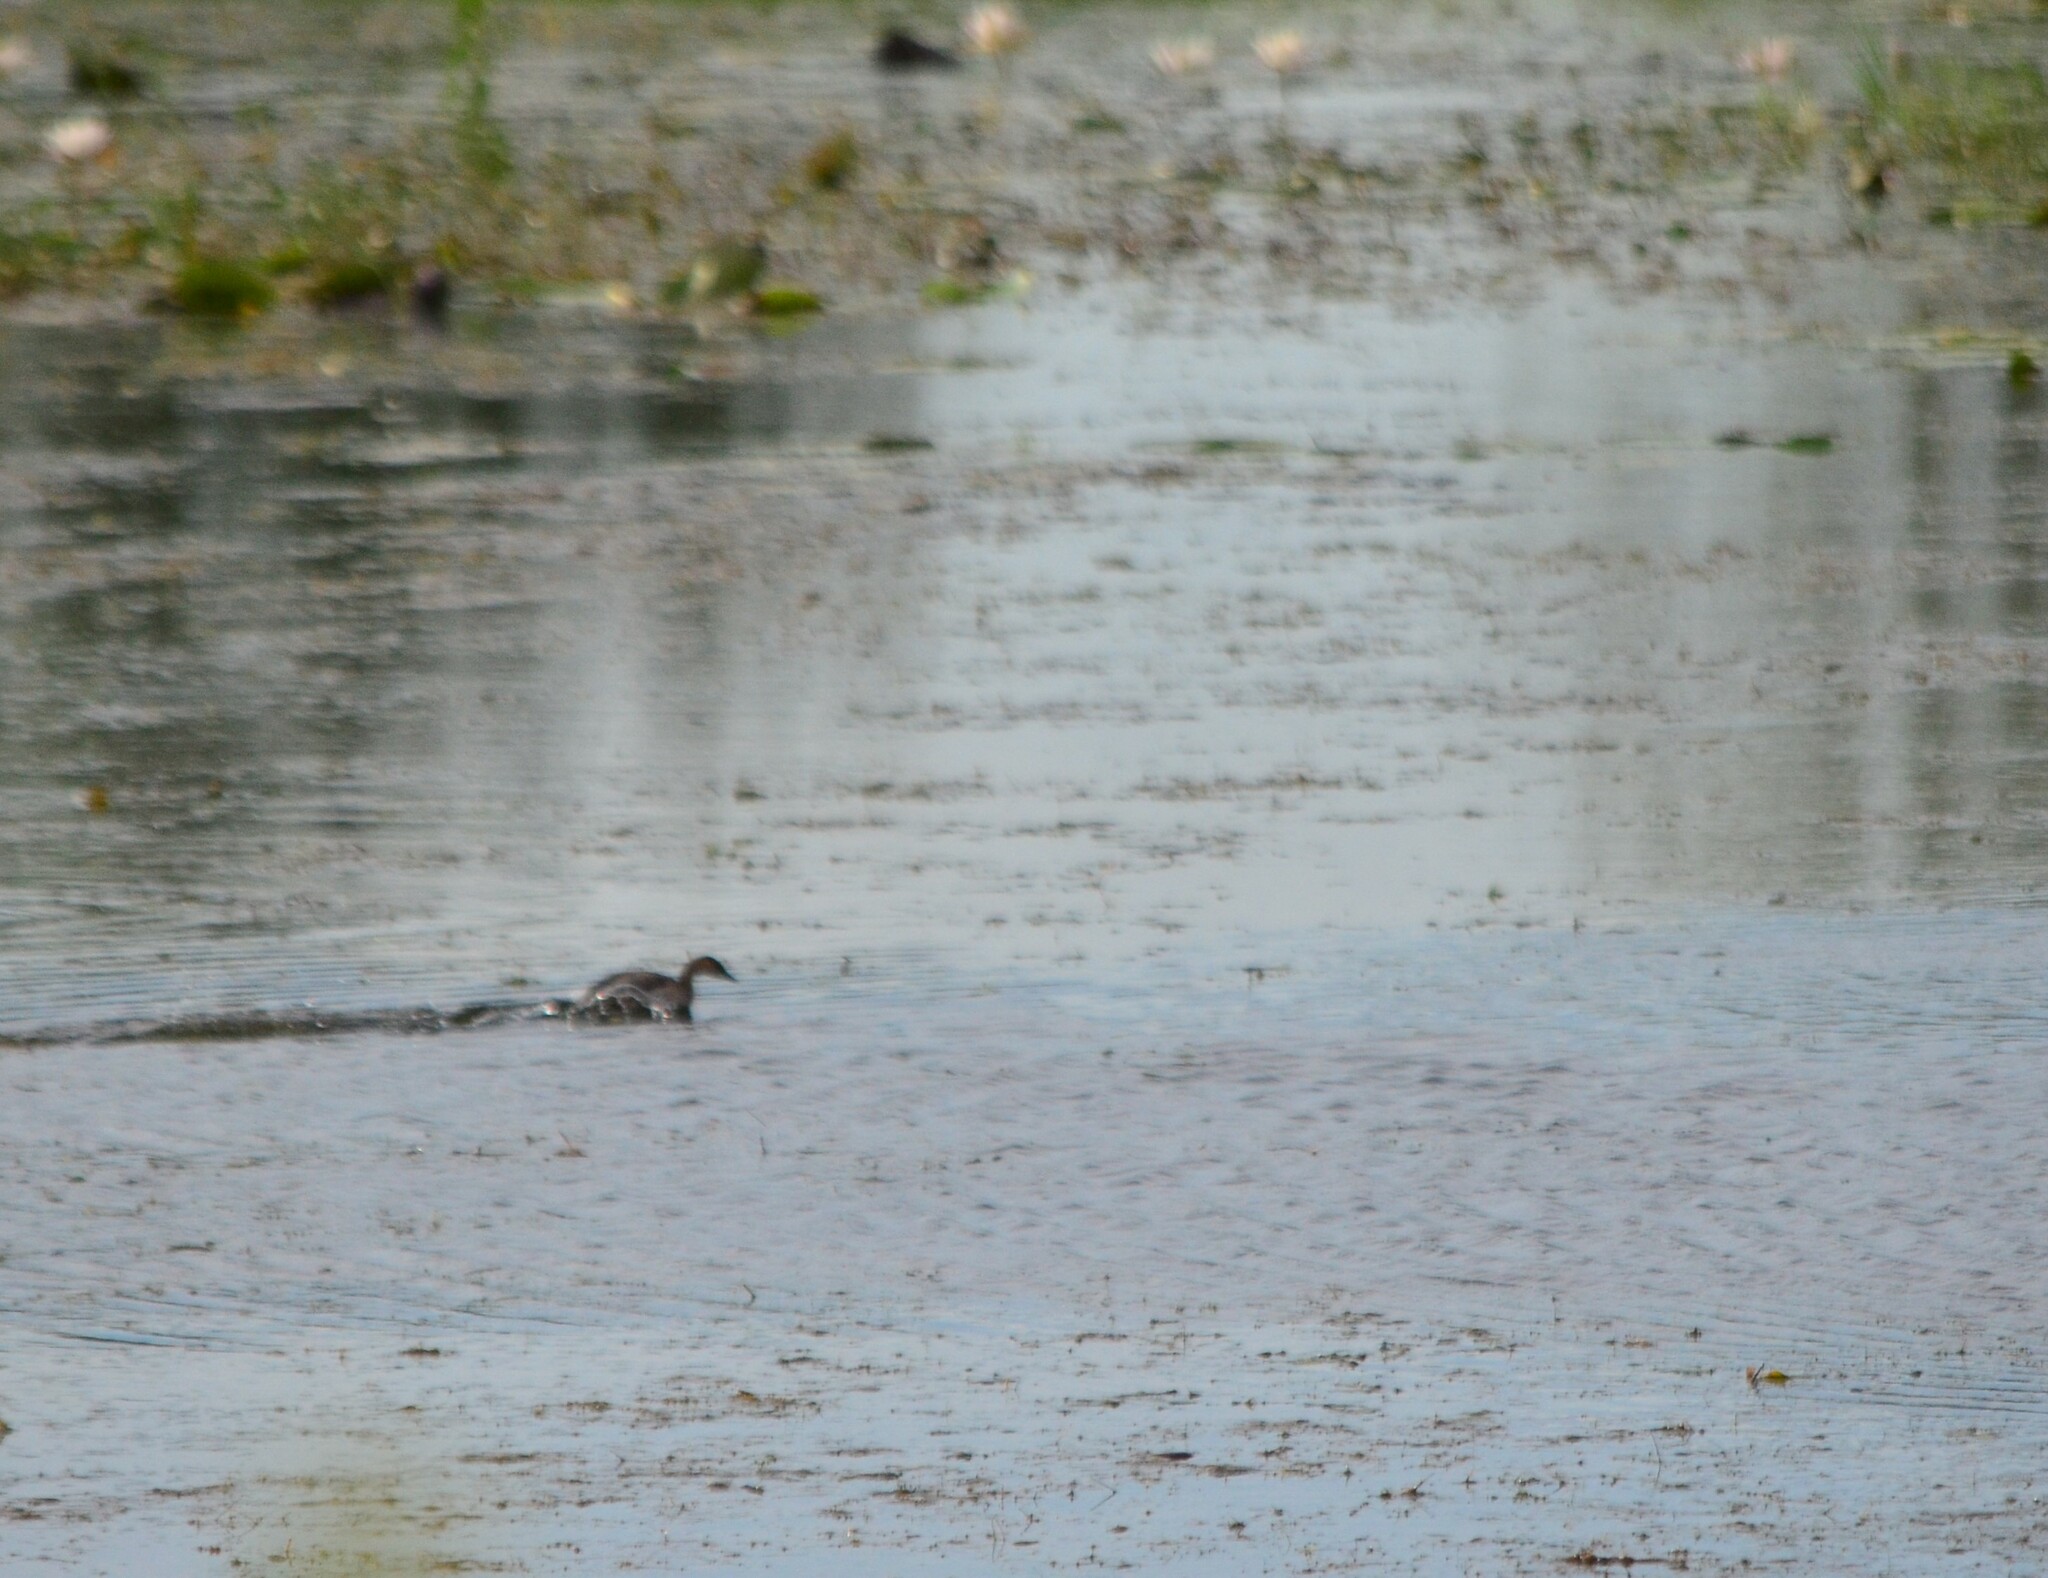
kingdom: Animalia
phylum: Chordata
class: Aves
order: Podicipediformes
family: Podicipedidae
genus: Tachybaptus
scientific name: Tachybaptus ruficollis
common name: Little grebe
